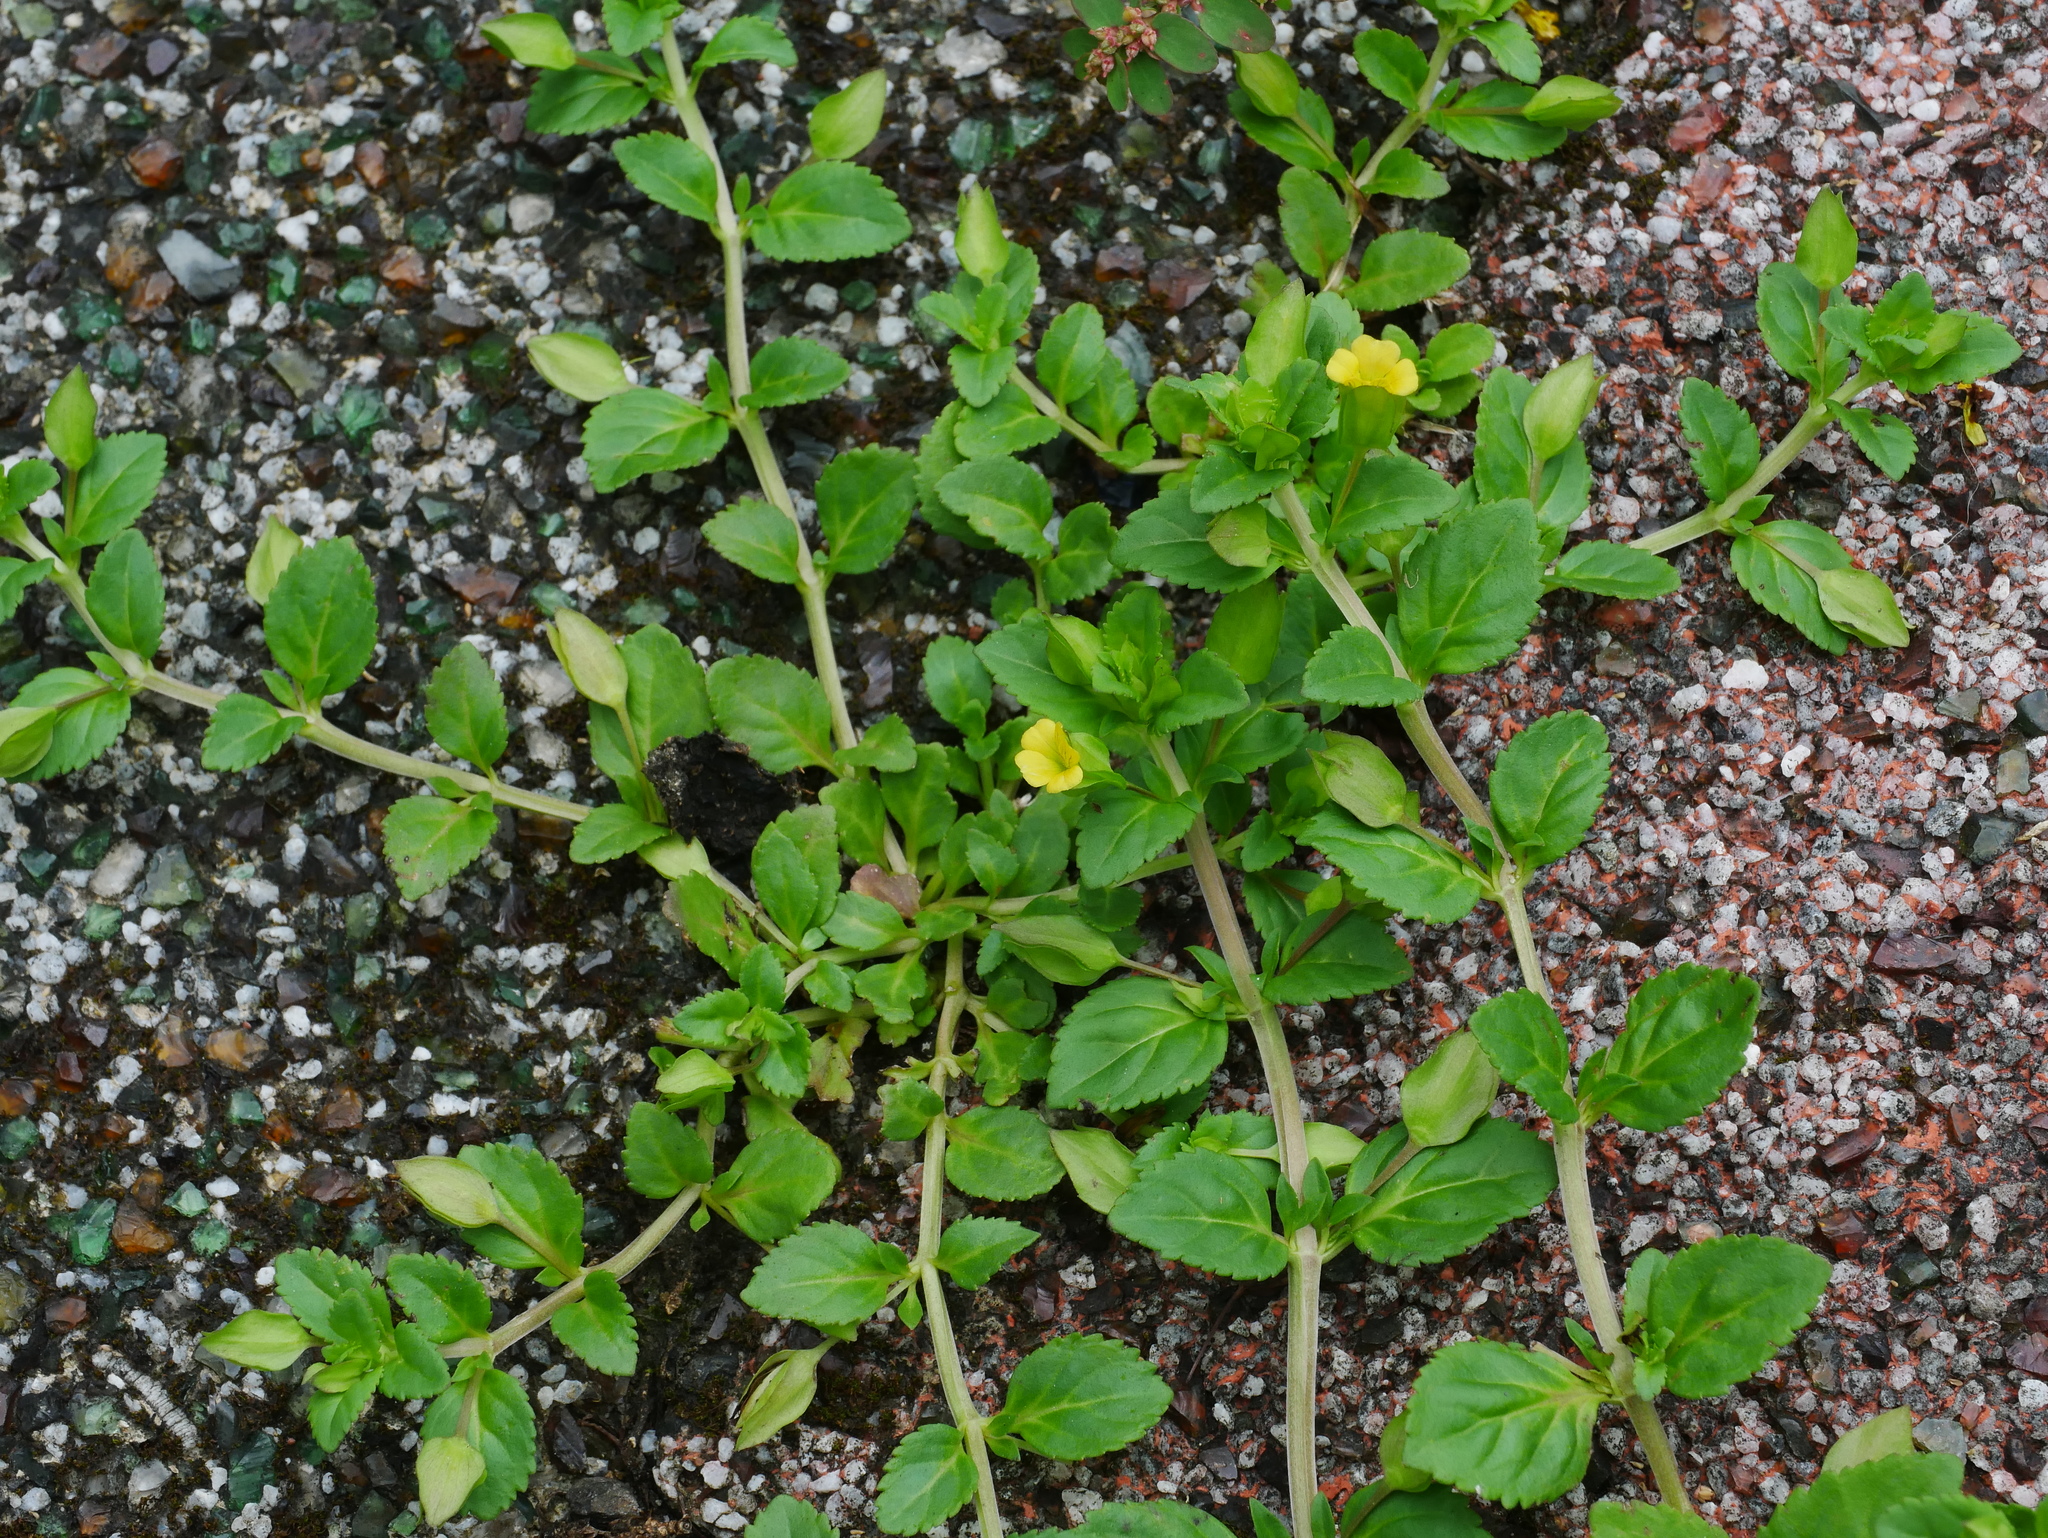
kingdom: Plantae
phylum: Tracheophyta
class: Magnoliopsida
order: Lamiales
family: Plantaginaceae
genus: Mecardonia
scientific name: Mecardonia procumbens
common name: Baby jump-up
